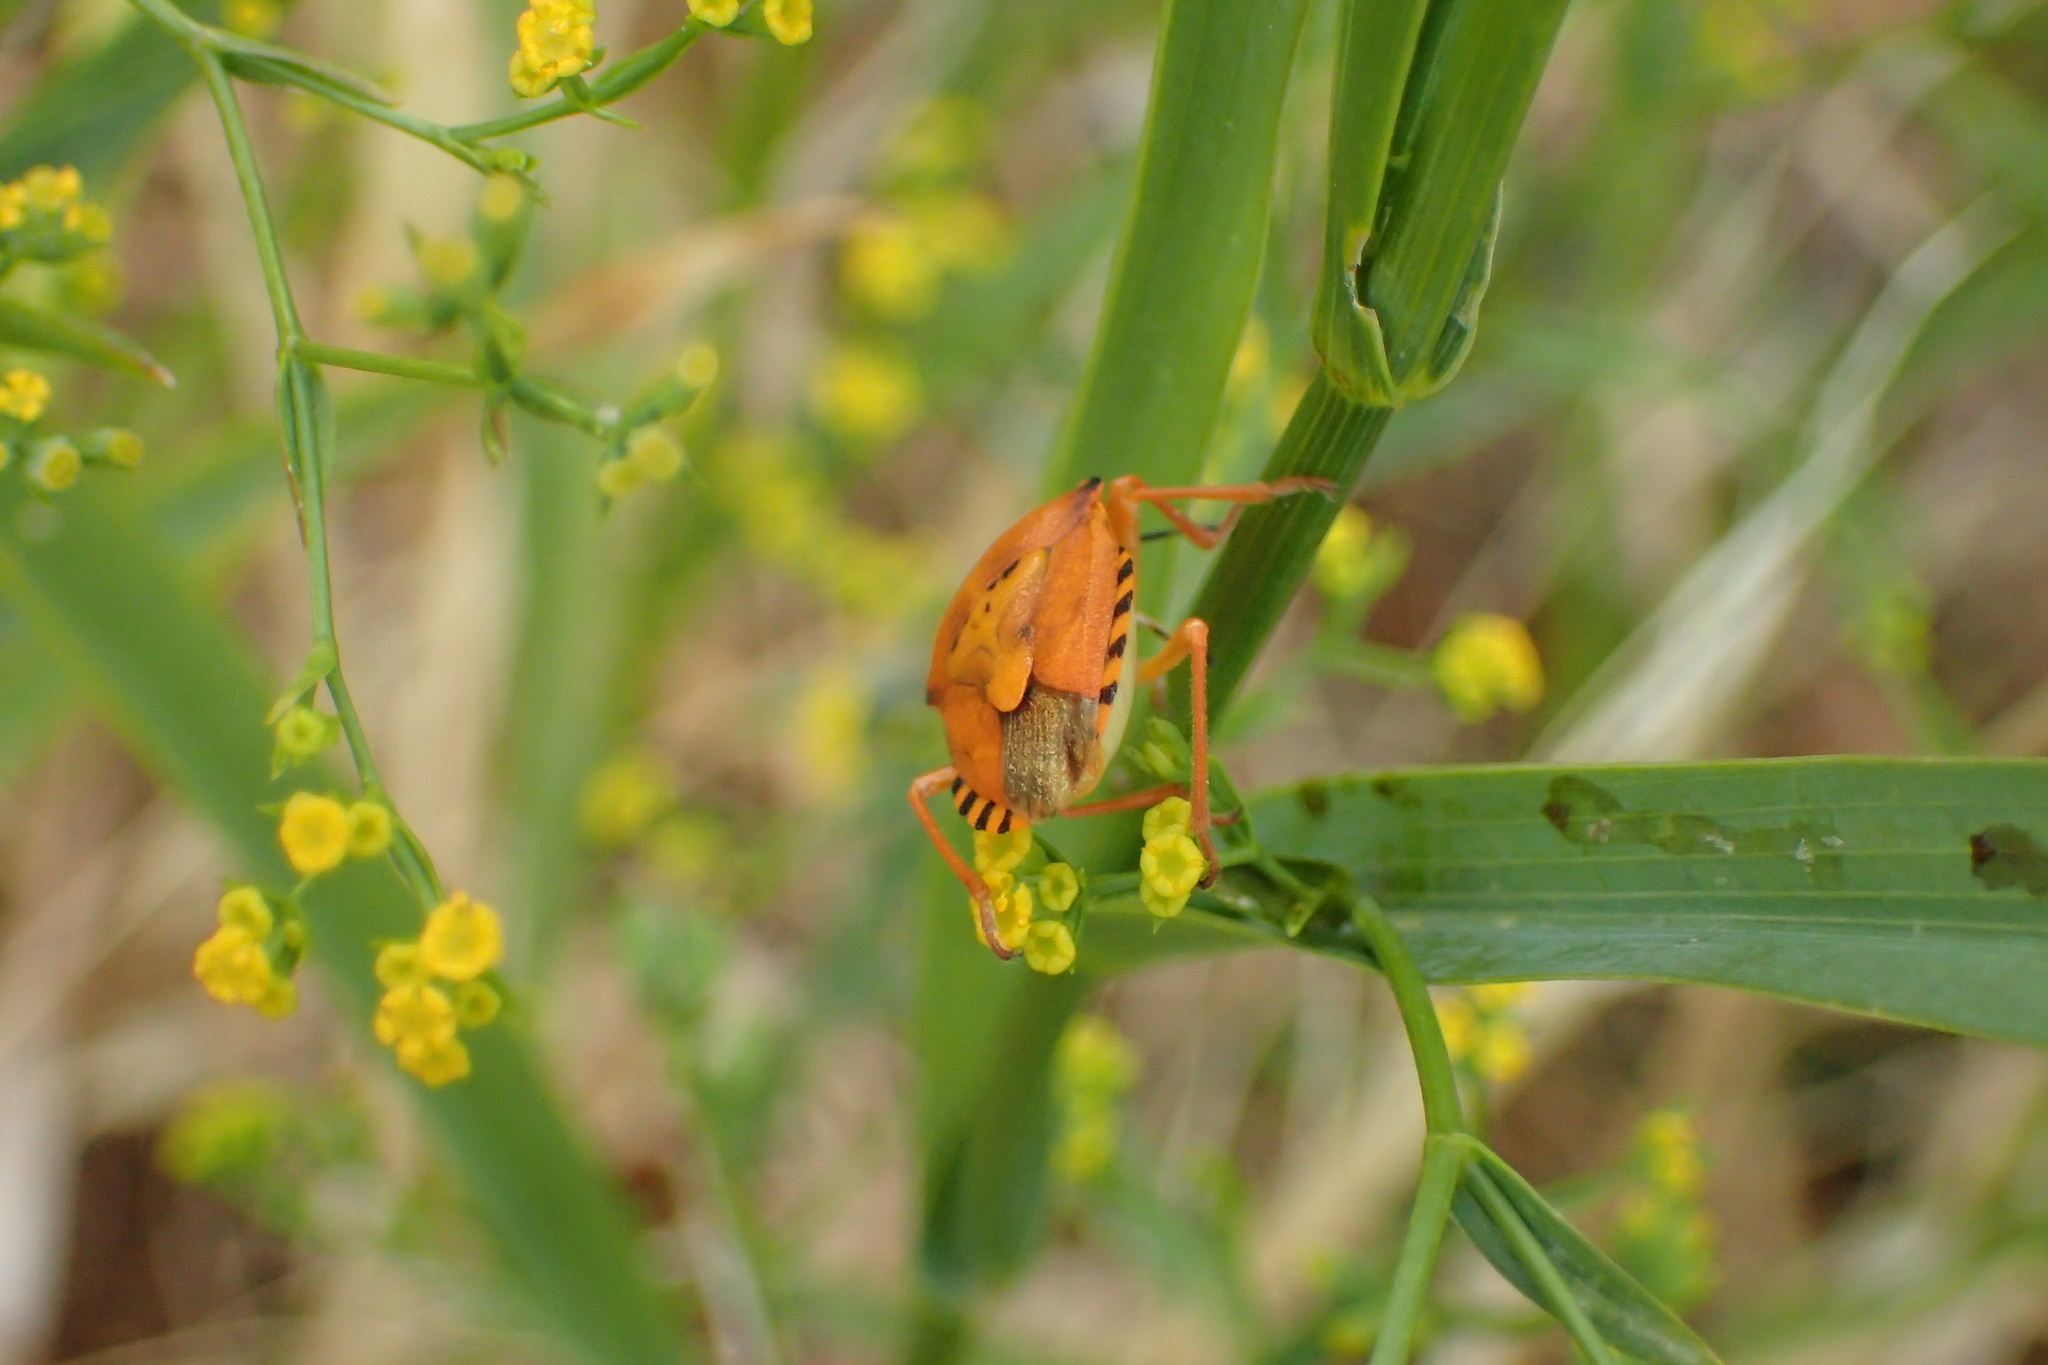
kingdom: Animalia
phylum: Arthropoda
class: Insecta
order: Hemiptera
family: Pentatomidae
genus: Carpocoris
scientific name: Carpocoris mediterraneus
